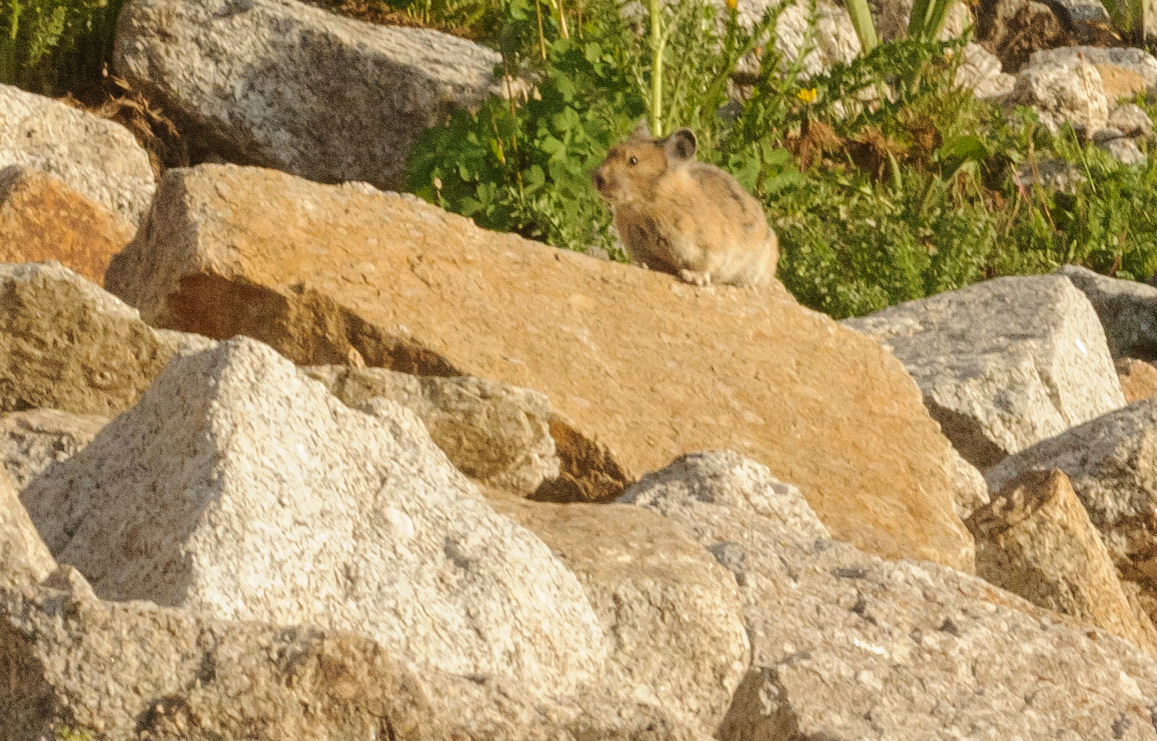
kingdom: Animalia
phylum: Chordata
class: Mammalia
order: Lagomorpha
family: Ochotonidae
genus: Ochotona
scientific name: Ochotona princeps
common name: American pika
